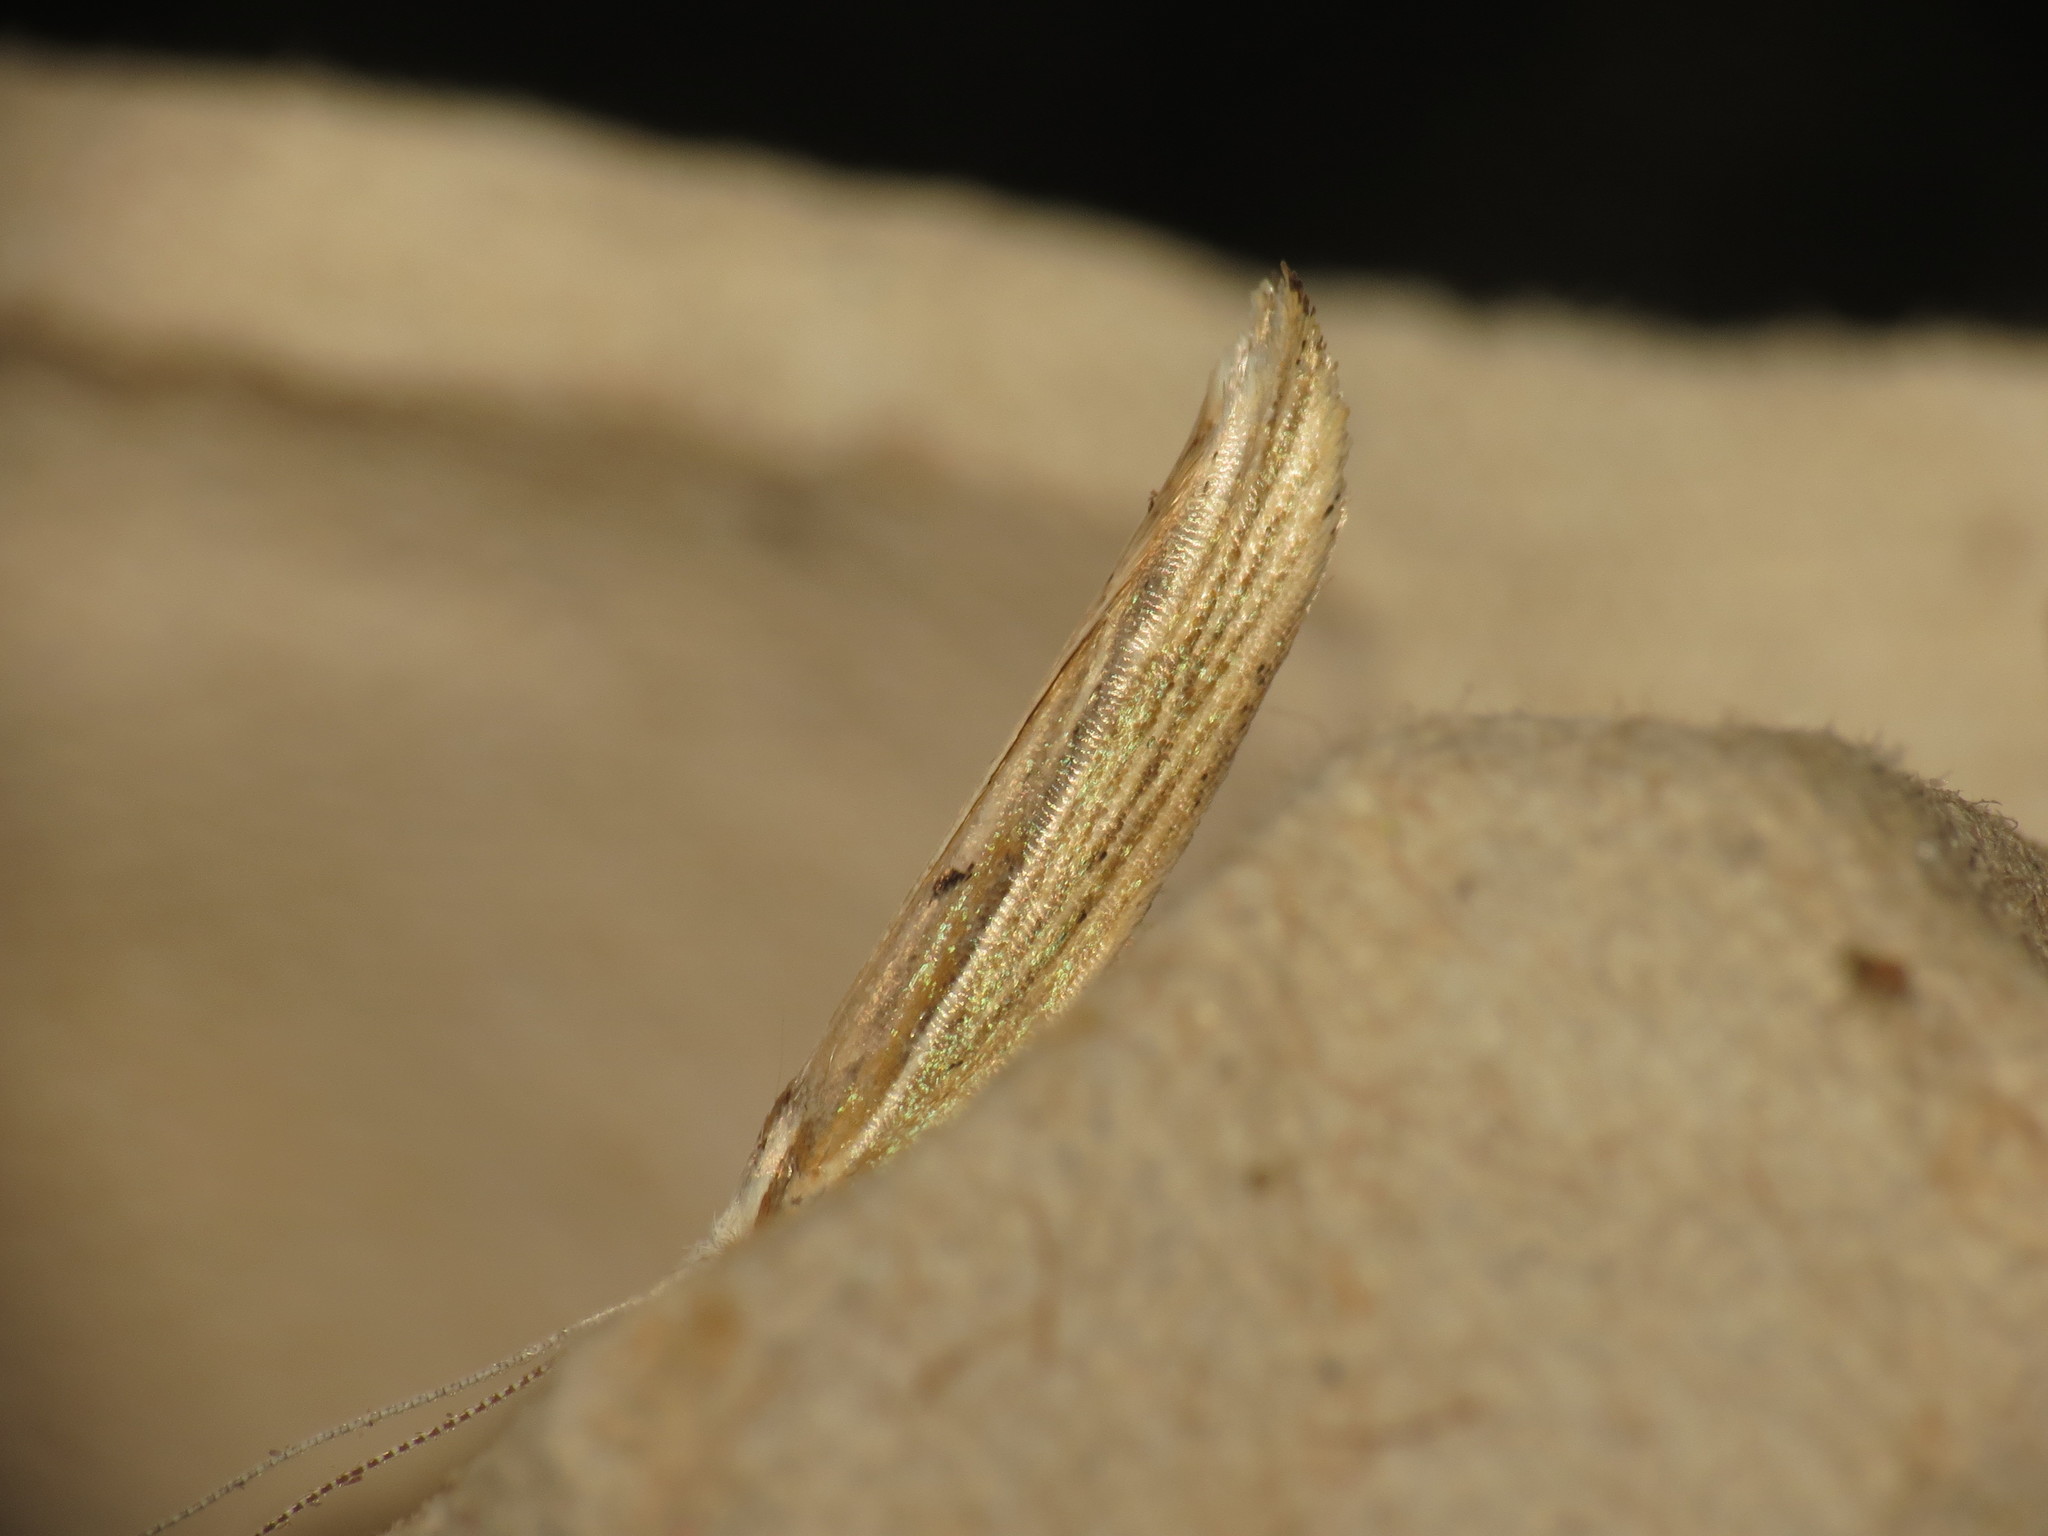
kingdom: Animalia
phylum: Arthropoda
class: Insecta
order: Lepidoptera
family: Ypsolophidae
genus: Ypsolopha
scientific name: Ypsolopha nemorella
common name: Hooked smudge
